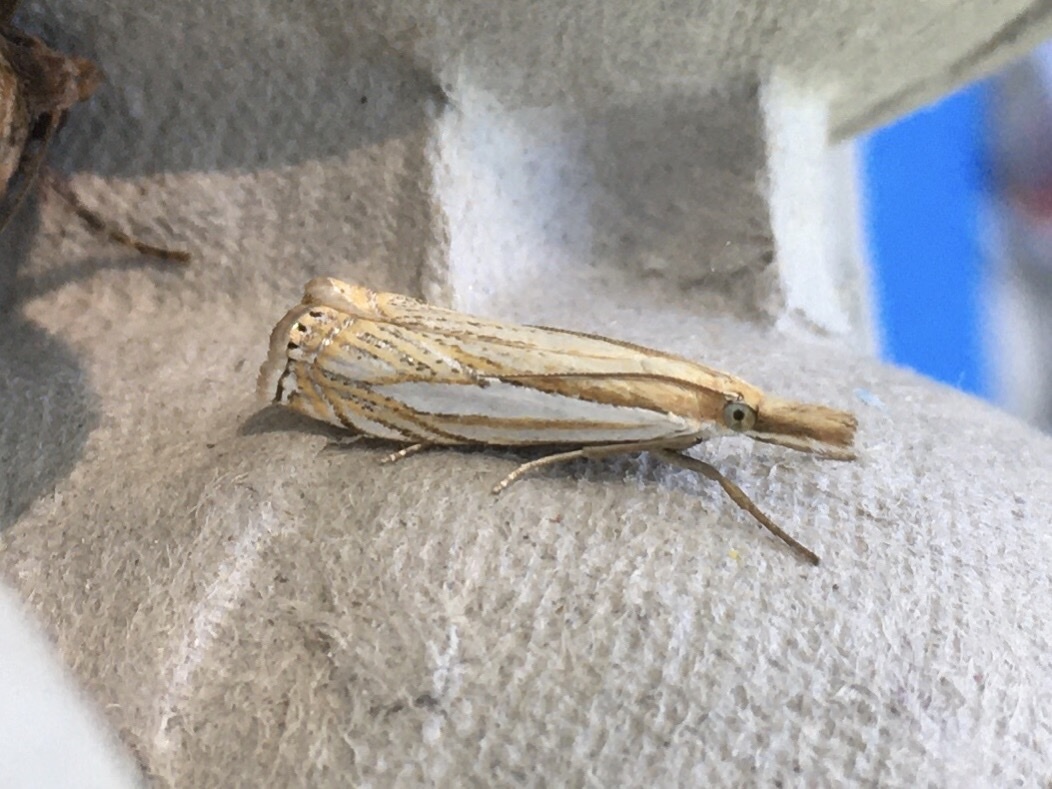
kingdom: Animalia
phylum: Arthropoda
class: Insecta
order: Lepidoptera
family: Crambidae
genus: Crambus
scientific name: Crambus saltuellus
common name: Pasture grass-veneer
